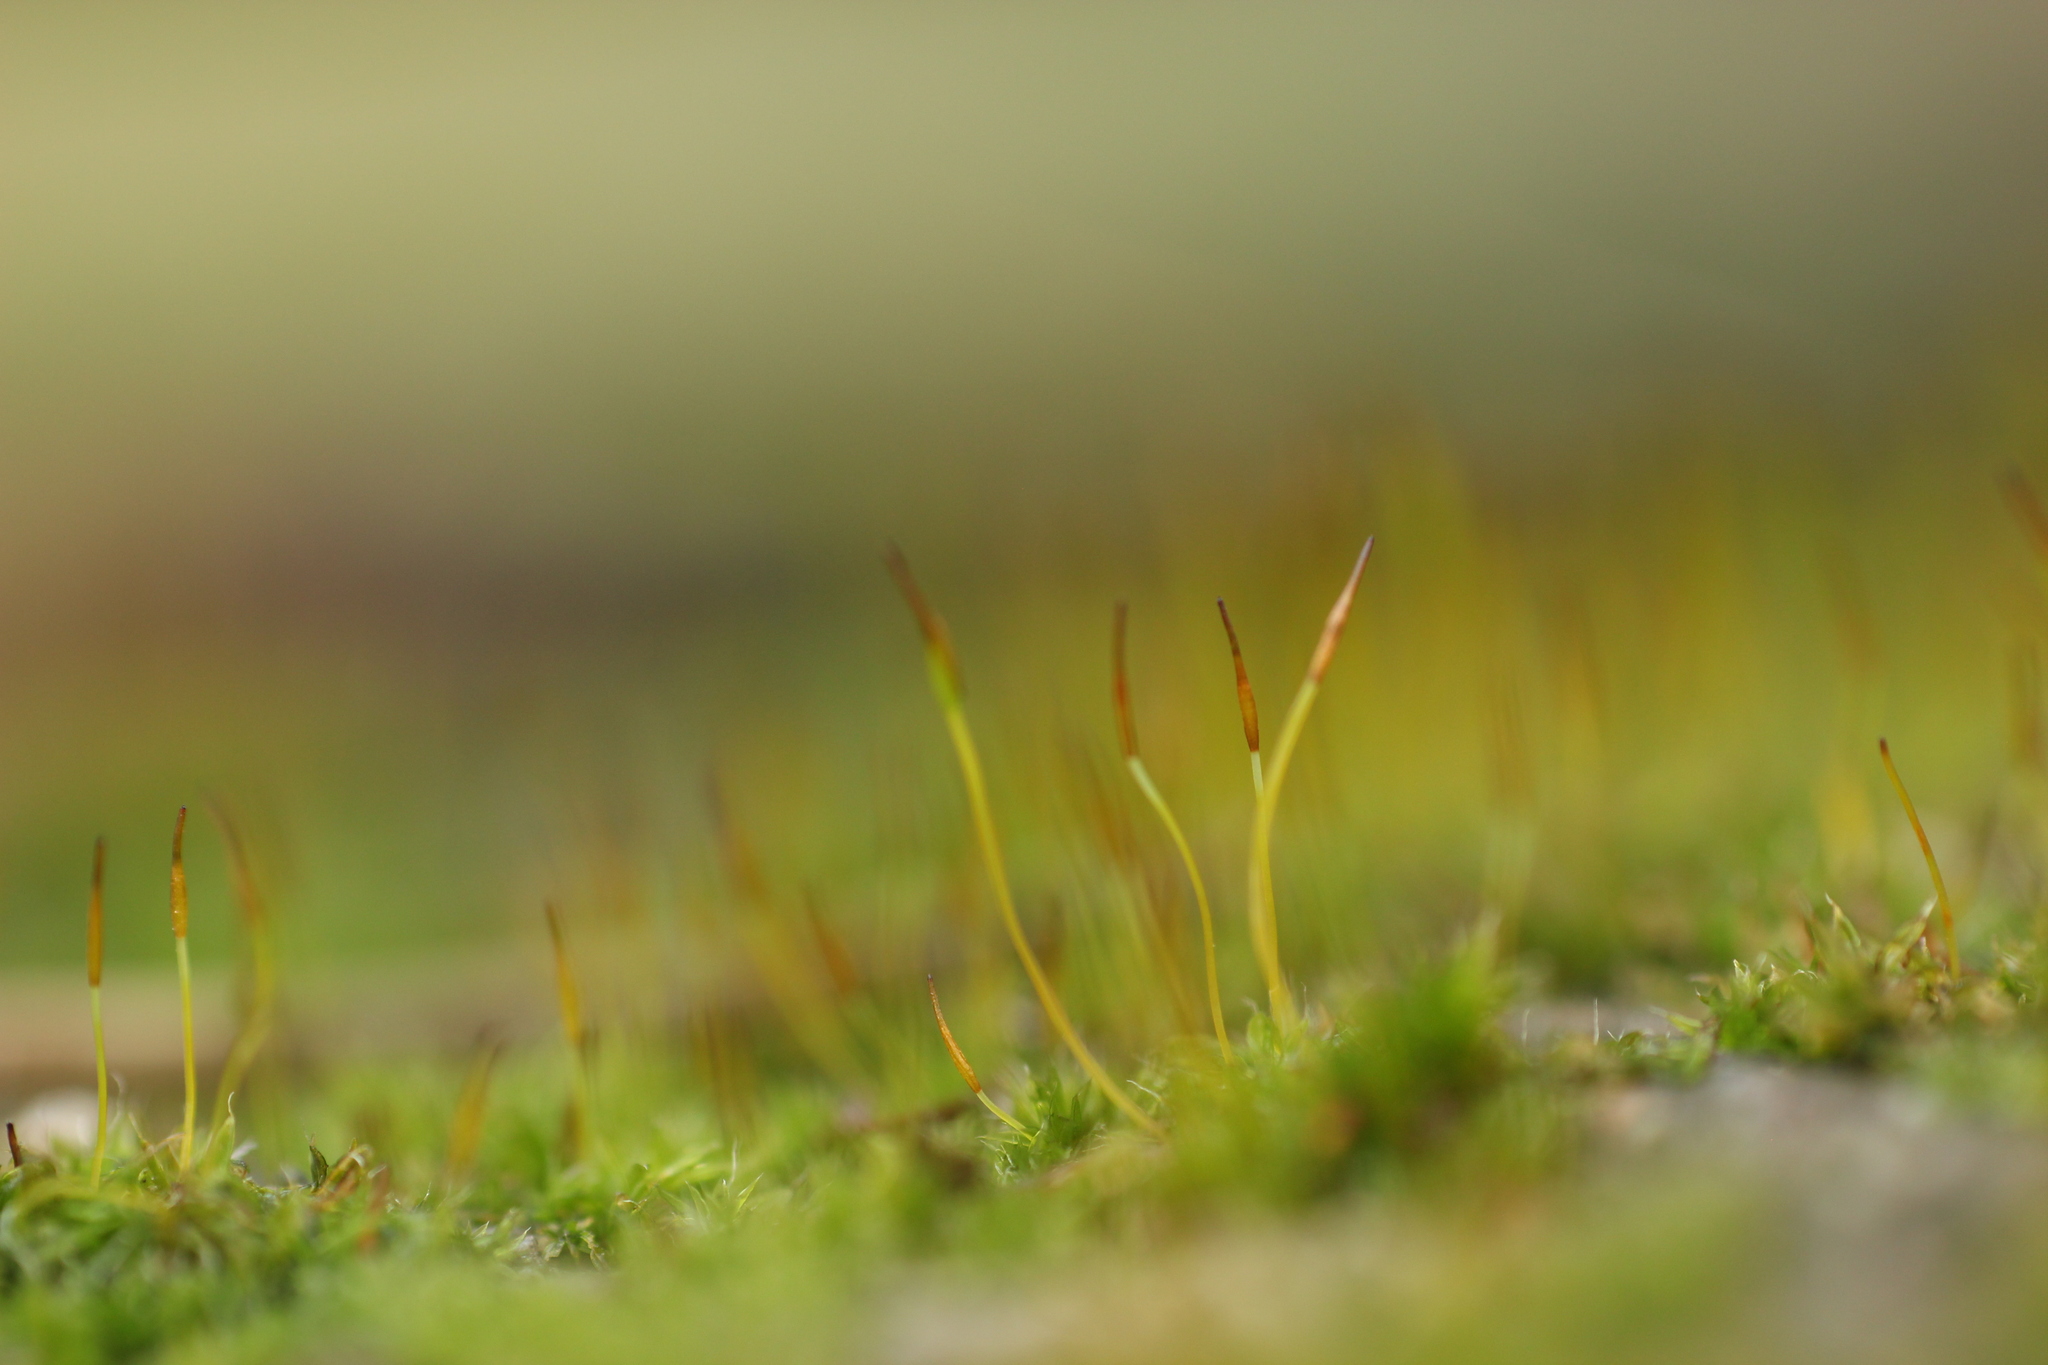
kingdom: Plantae
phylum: Bryophyta
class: Bryopsida
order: Pottiales
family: Pottiaceae
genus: Tortula
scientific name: Tortula muralis
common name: Wall screw-moss
